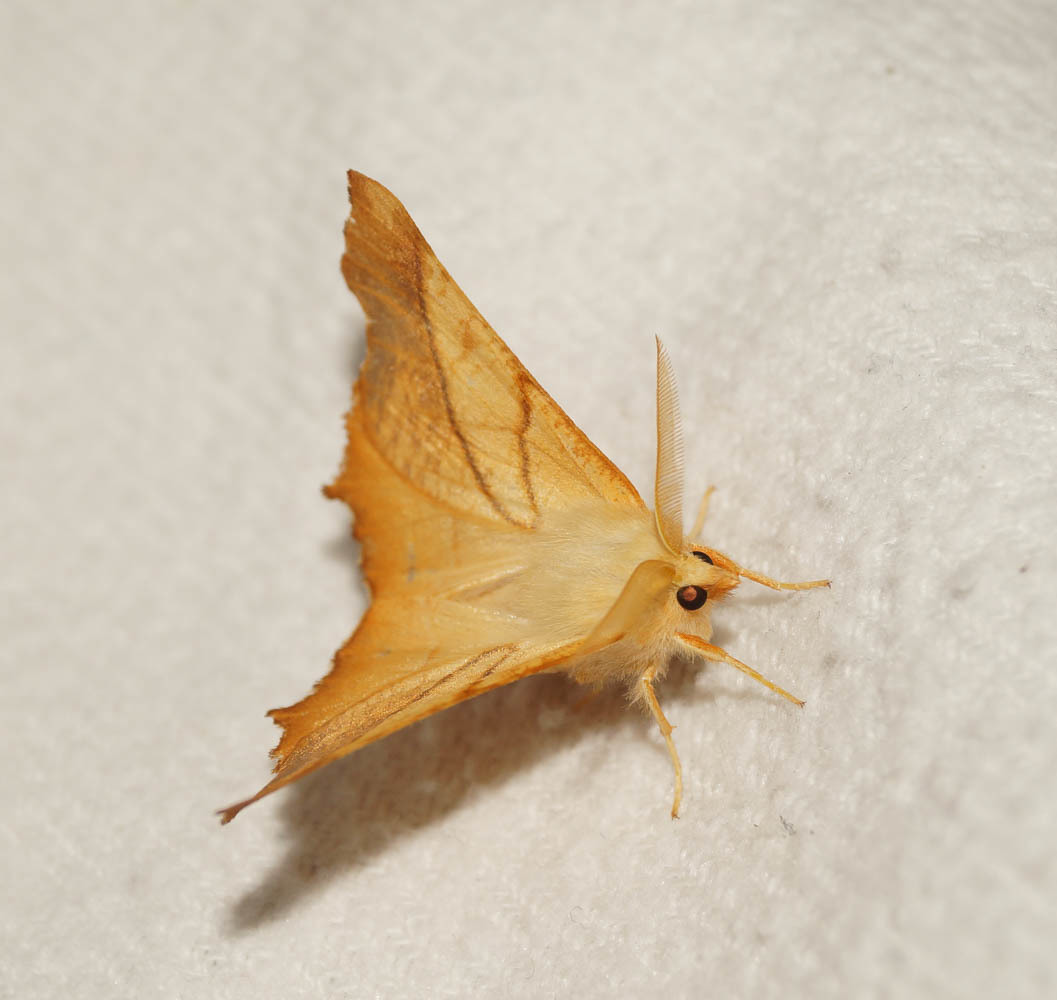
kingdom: Animalia
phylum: Arthropoda
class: Insecta
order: Lepidoptera
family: Geometridae
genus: Ennomos
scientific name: Ennomos fuscantaria
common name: Dusky thorn
